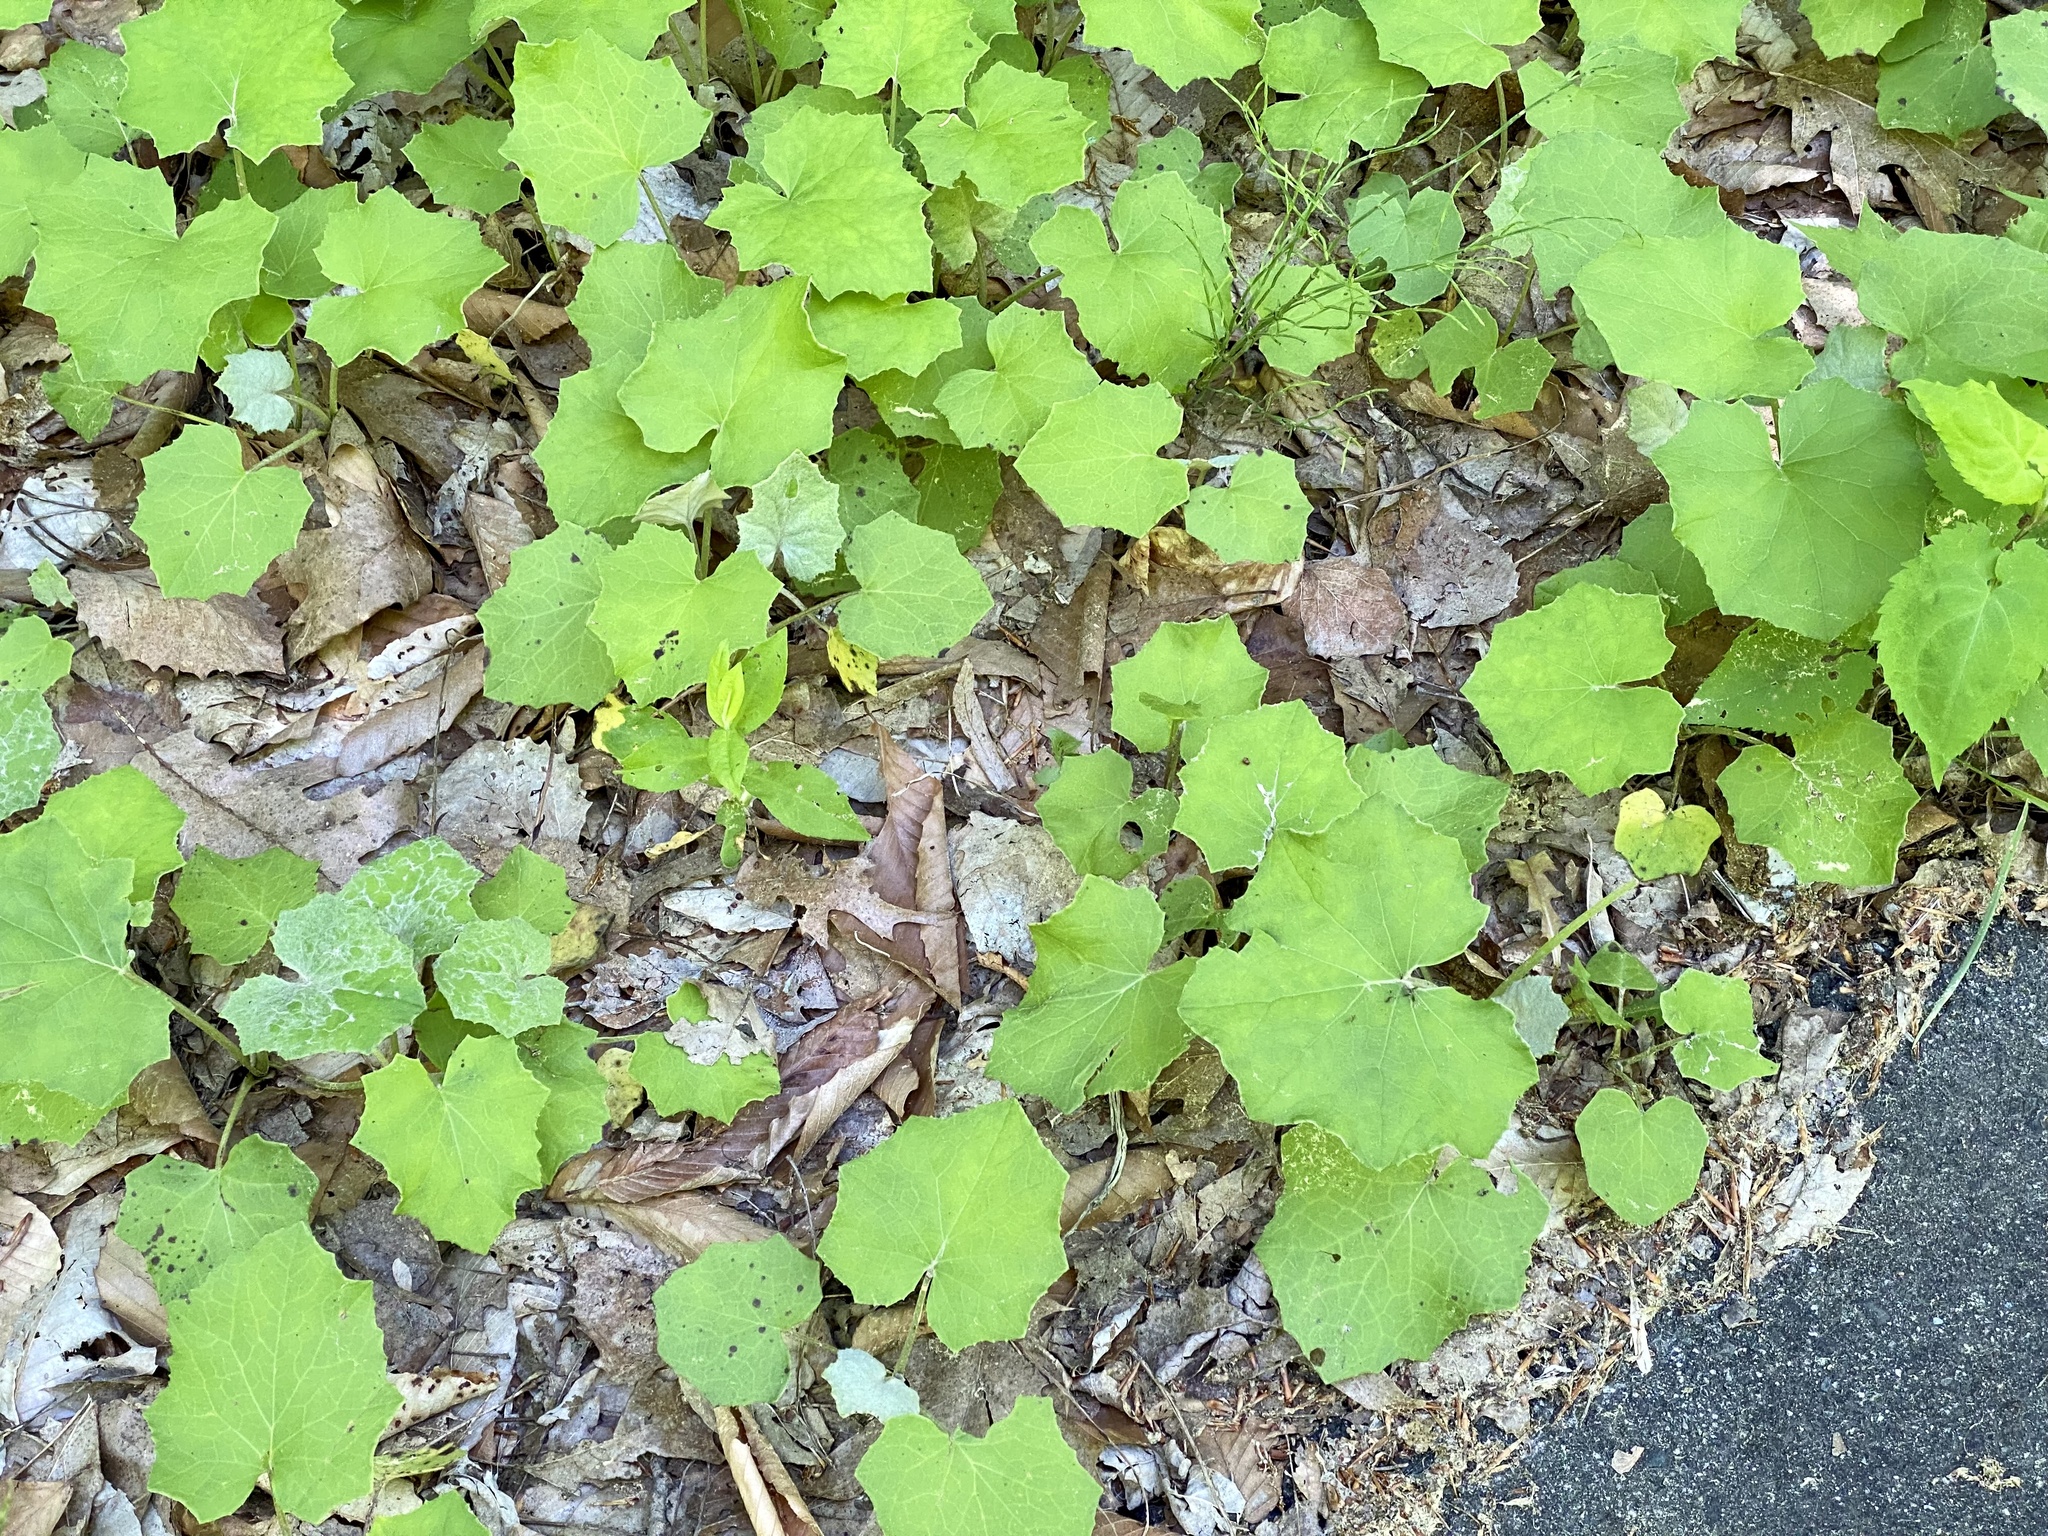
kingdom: Plantae
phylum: Tracheophyta
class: Magnoliopsida
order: Asterales
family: Asteraceae
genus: Tussilago
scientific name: Tussilago farfara
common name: Coltsfoot
